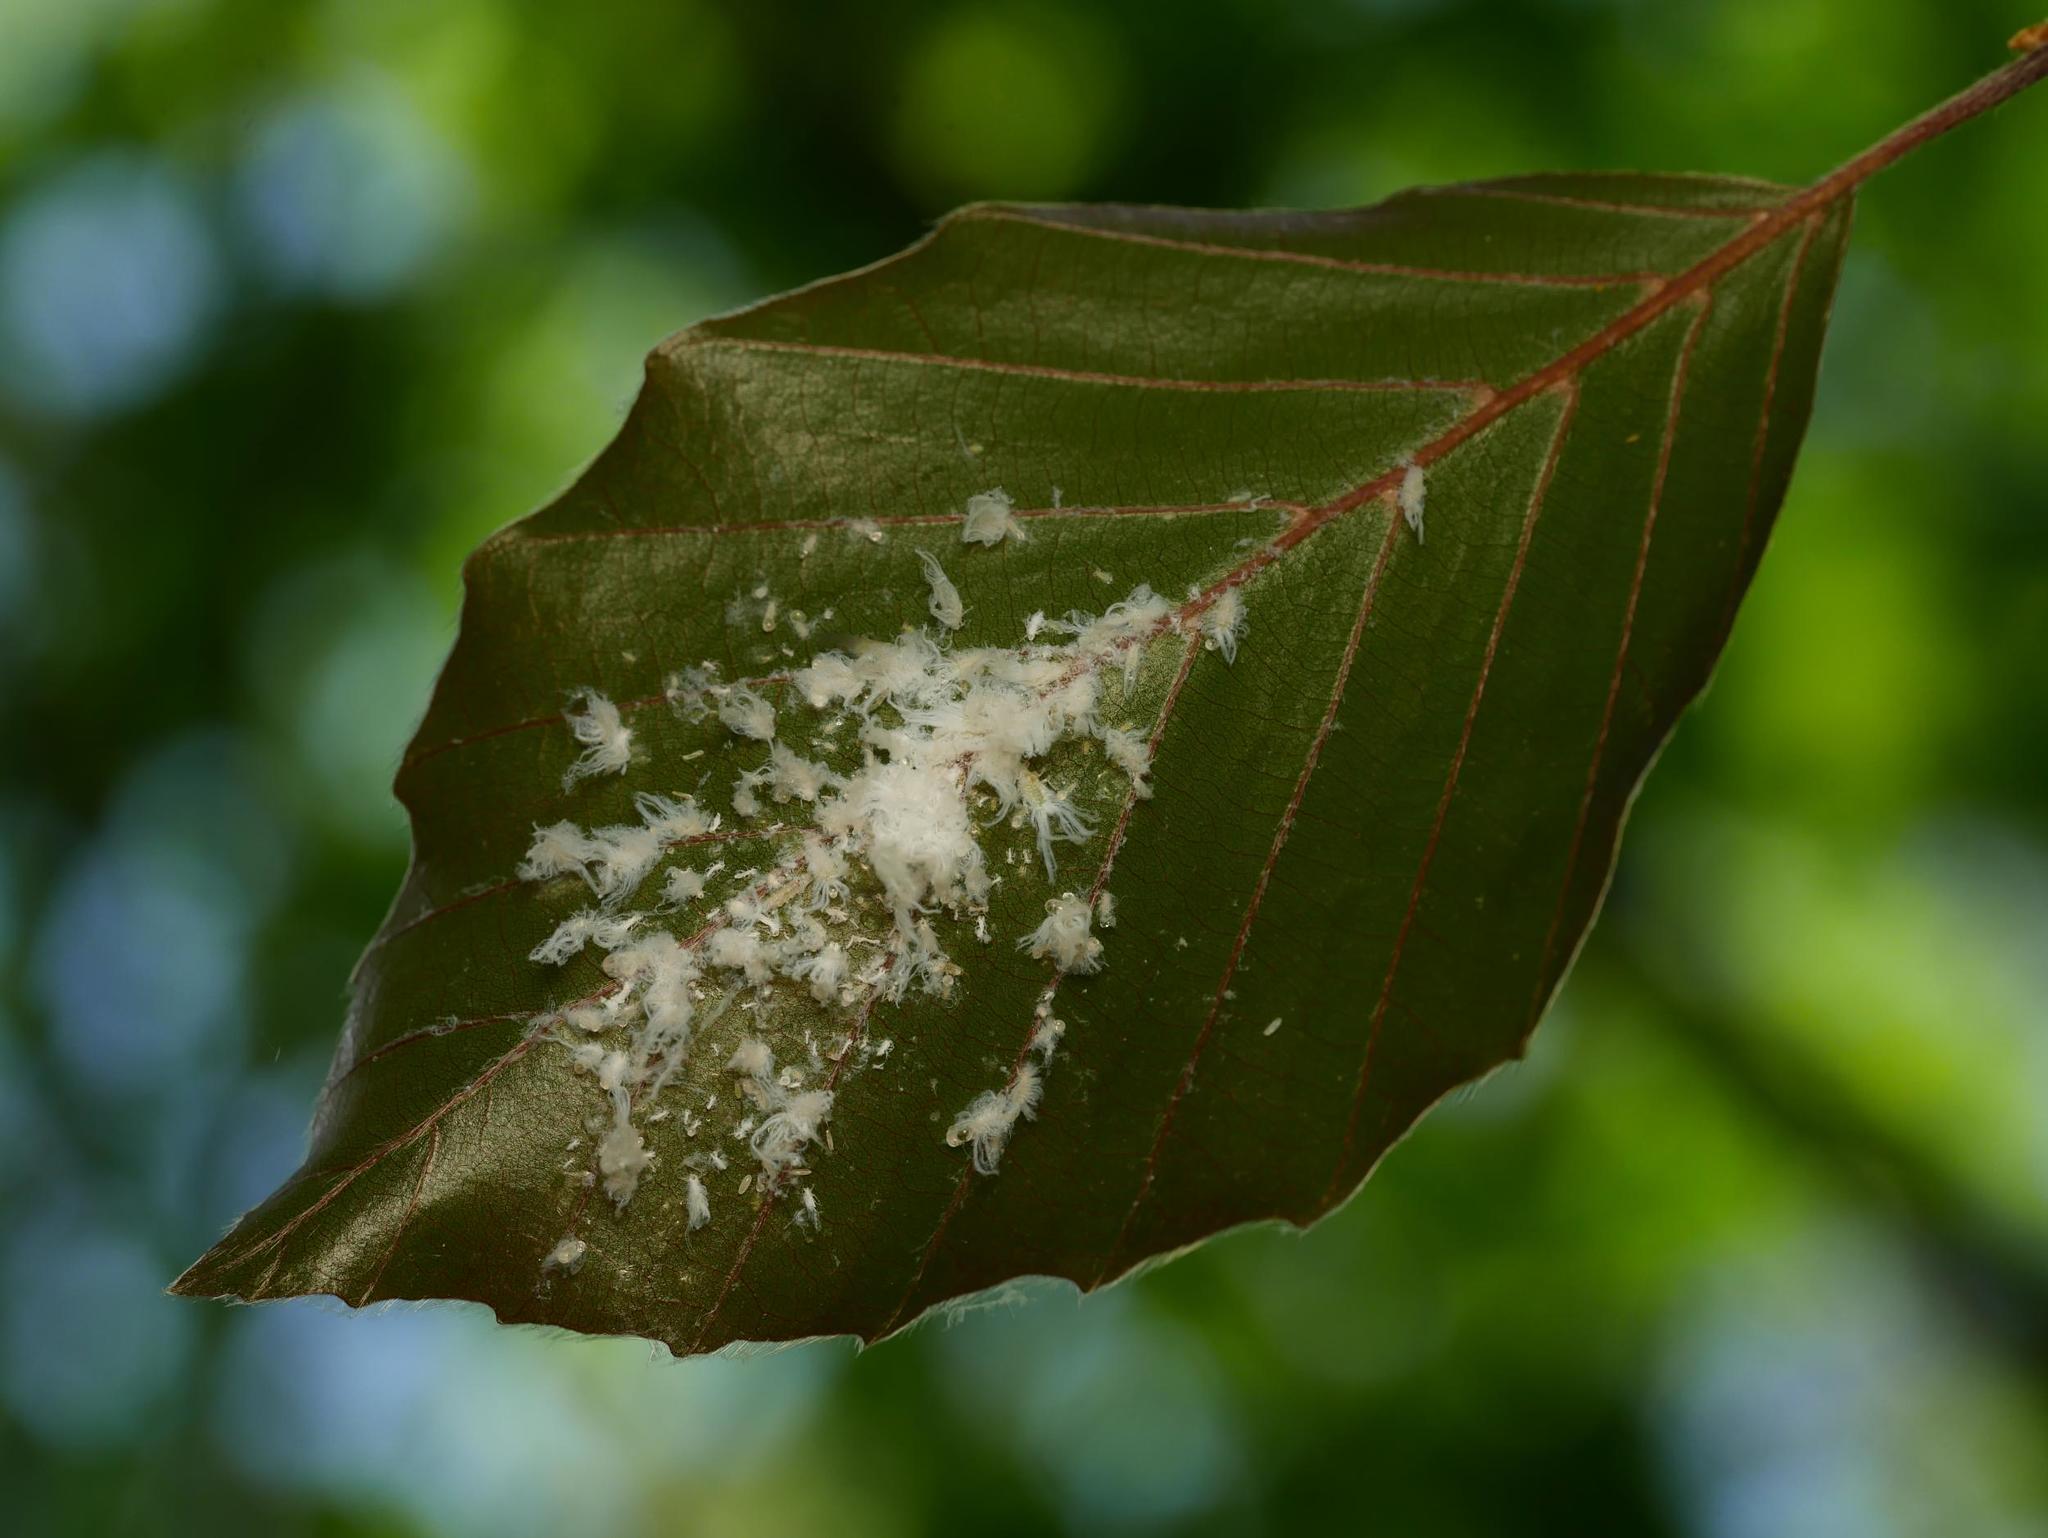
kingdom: Animalia
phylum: Arthropoda
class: Insecta
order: Hemiptera
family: Aphididae
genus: Phyllaphis
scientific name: Phyllaphis fagi
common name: Beech aphid
